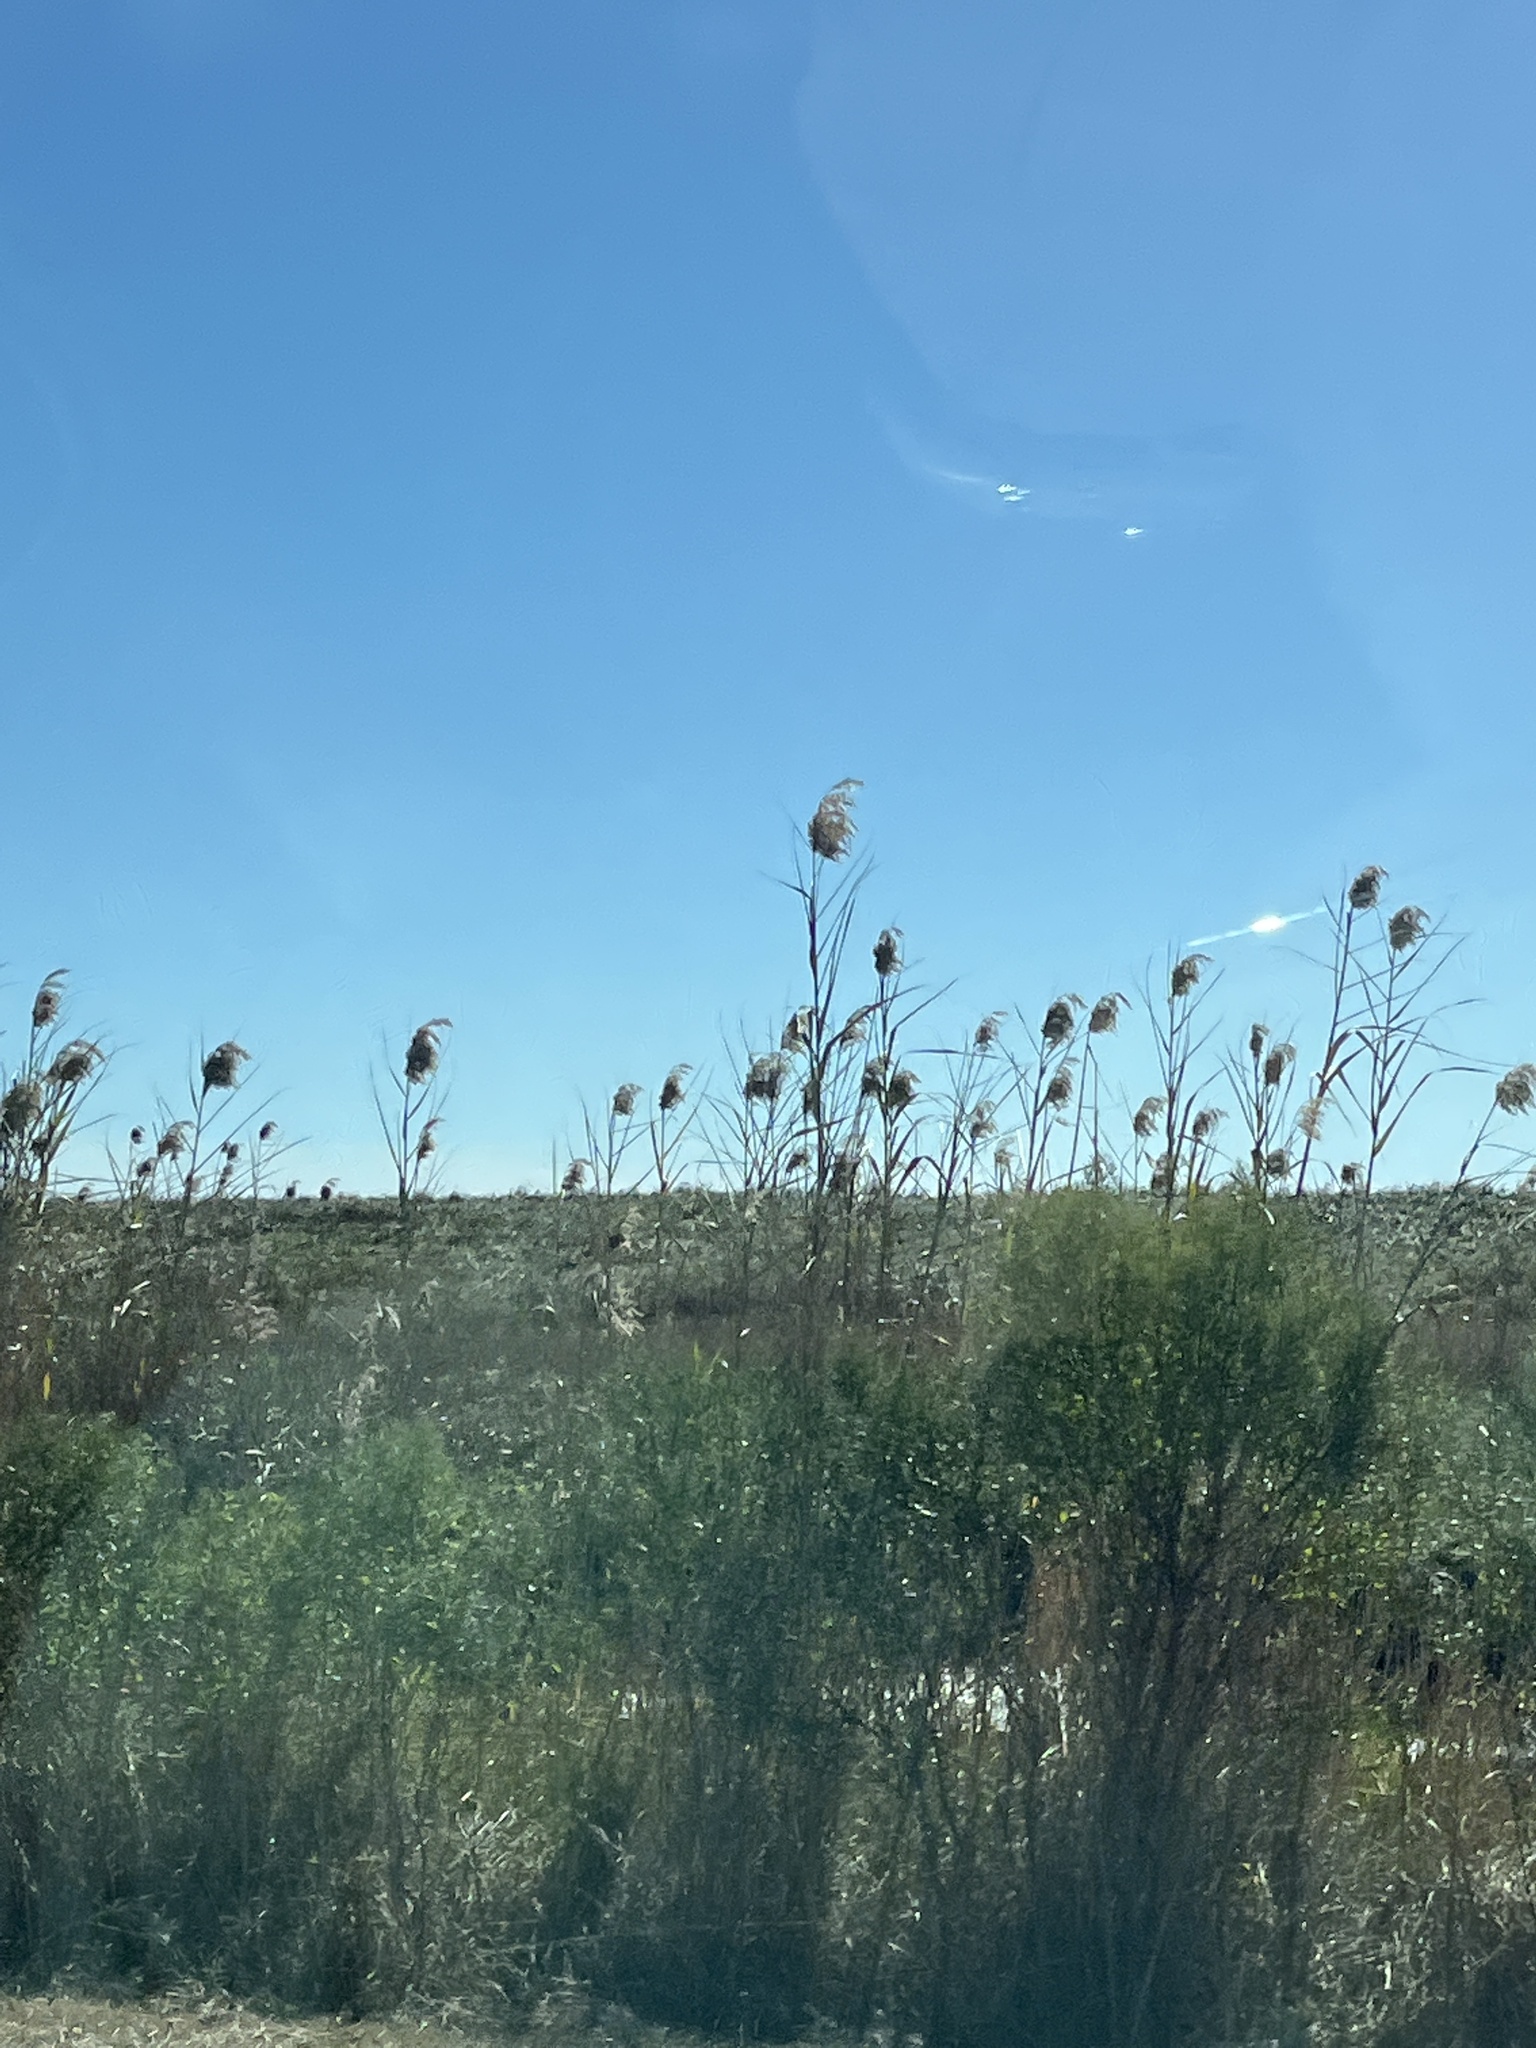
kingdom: Plantae
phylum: Tracheophyta
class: Liliopsida
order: Poales
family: Poaceae
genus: Phragmites
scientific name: Phragmites australis
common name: Common reed
